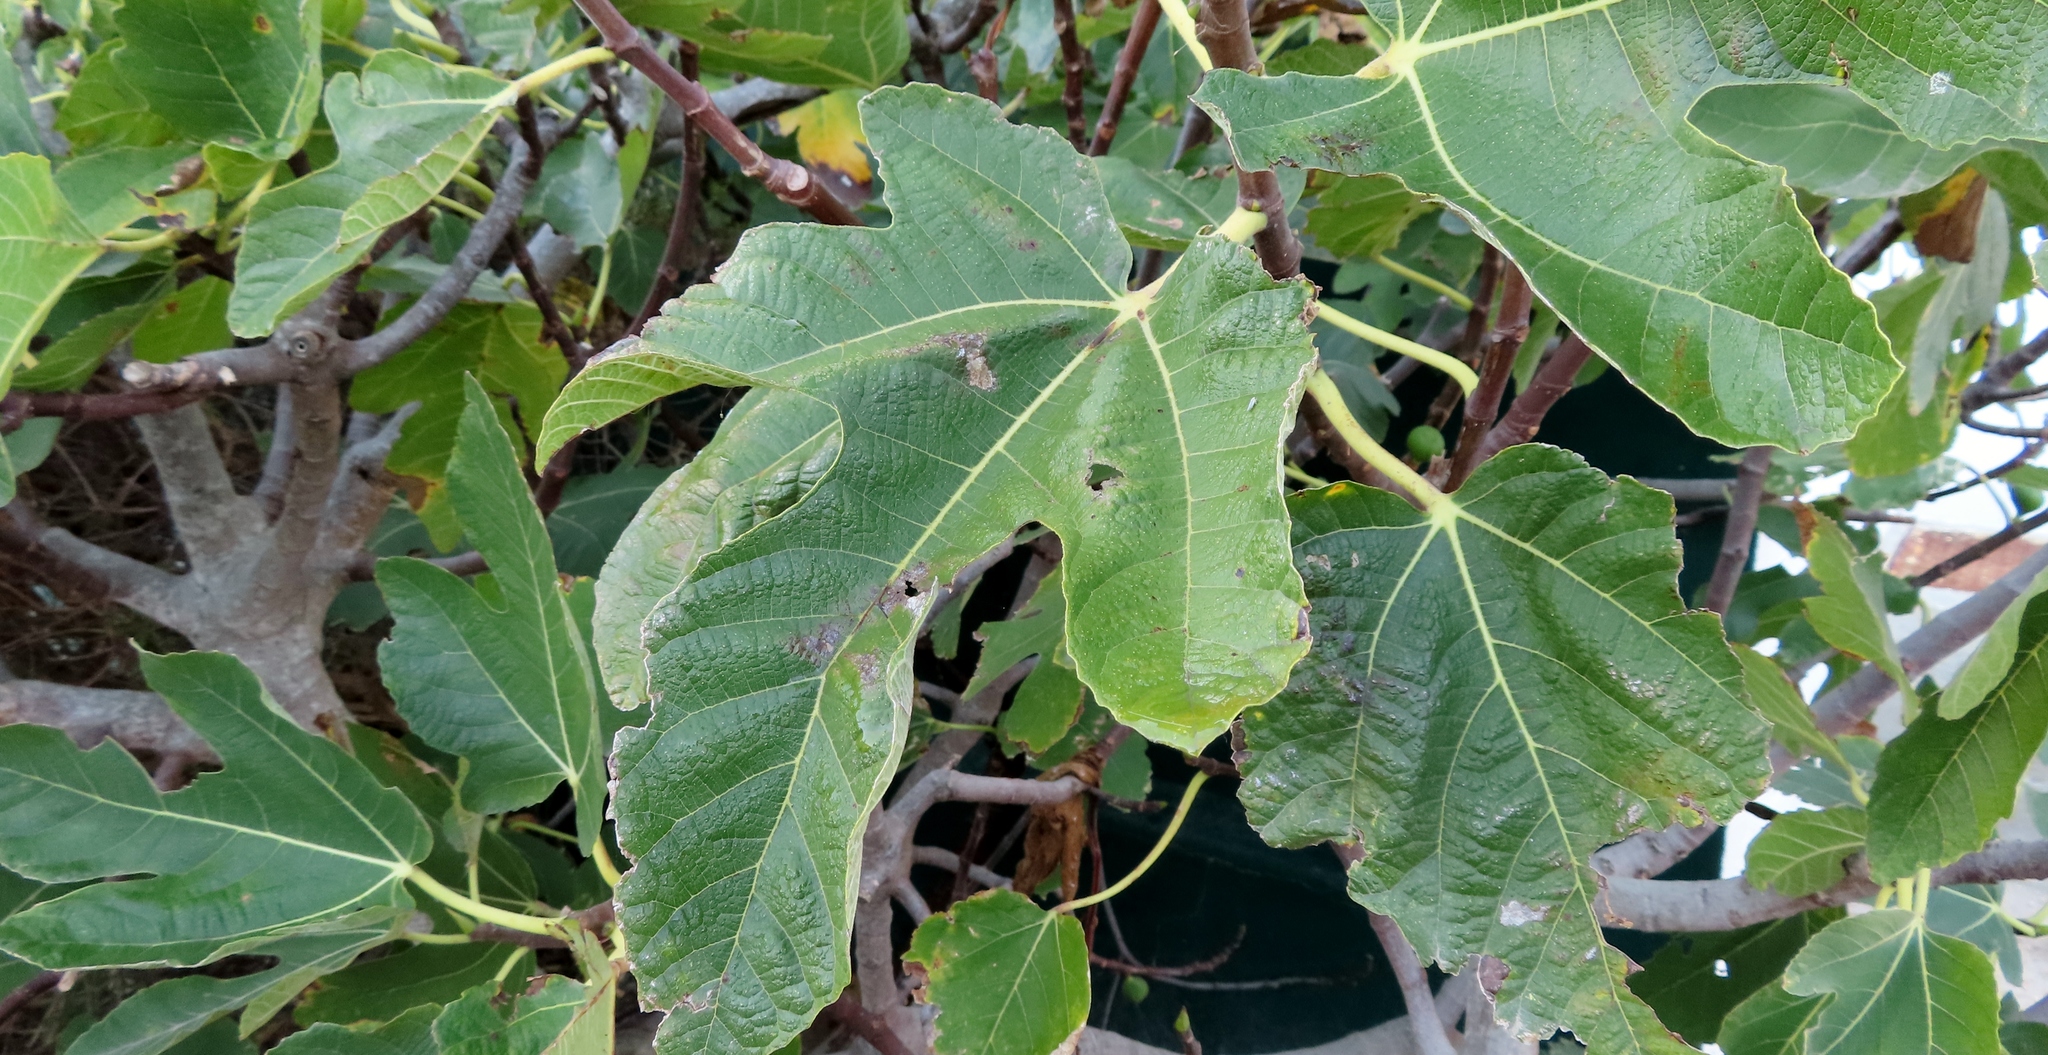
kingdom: Plantae
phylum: Tracheophyta
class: Magnoliopsida
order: Rosales
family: Moraceae
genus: Ficus
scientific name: Ficus carica
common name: Fig
